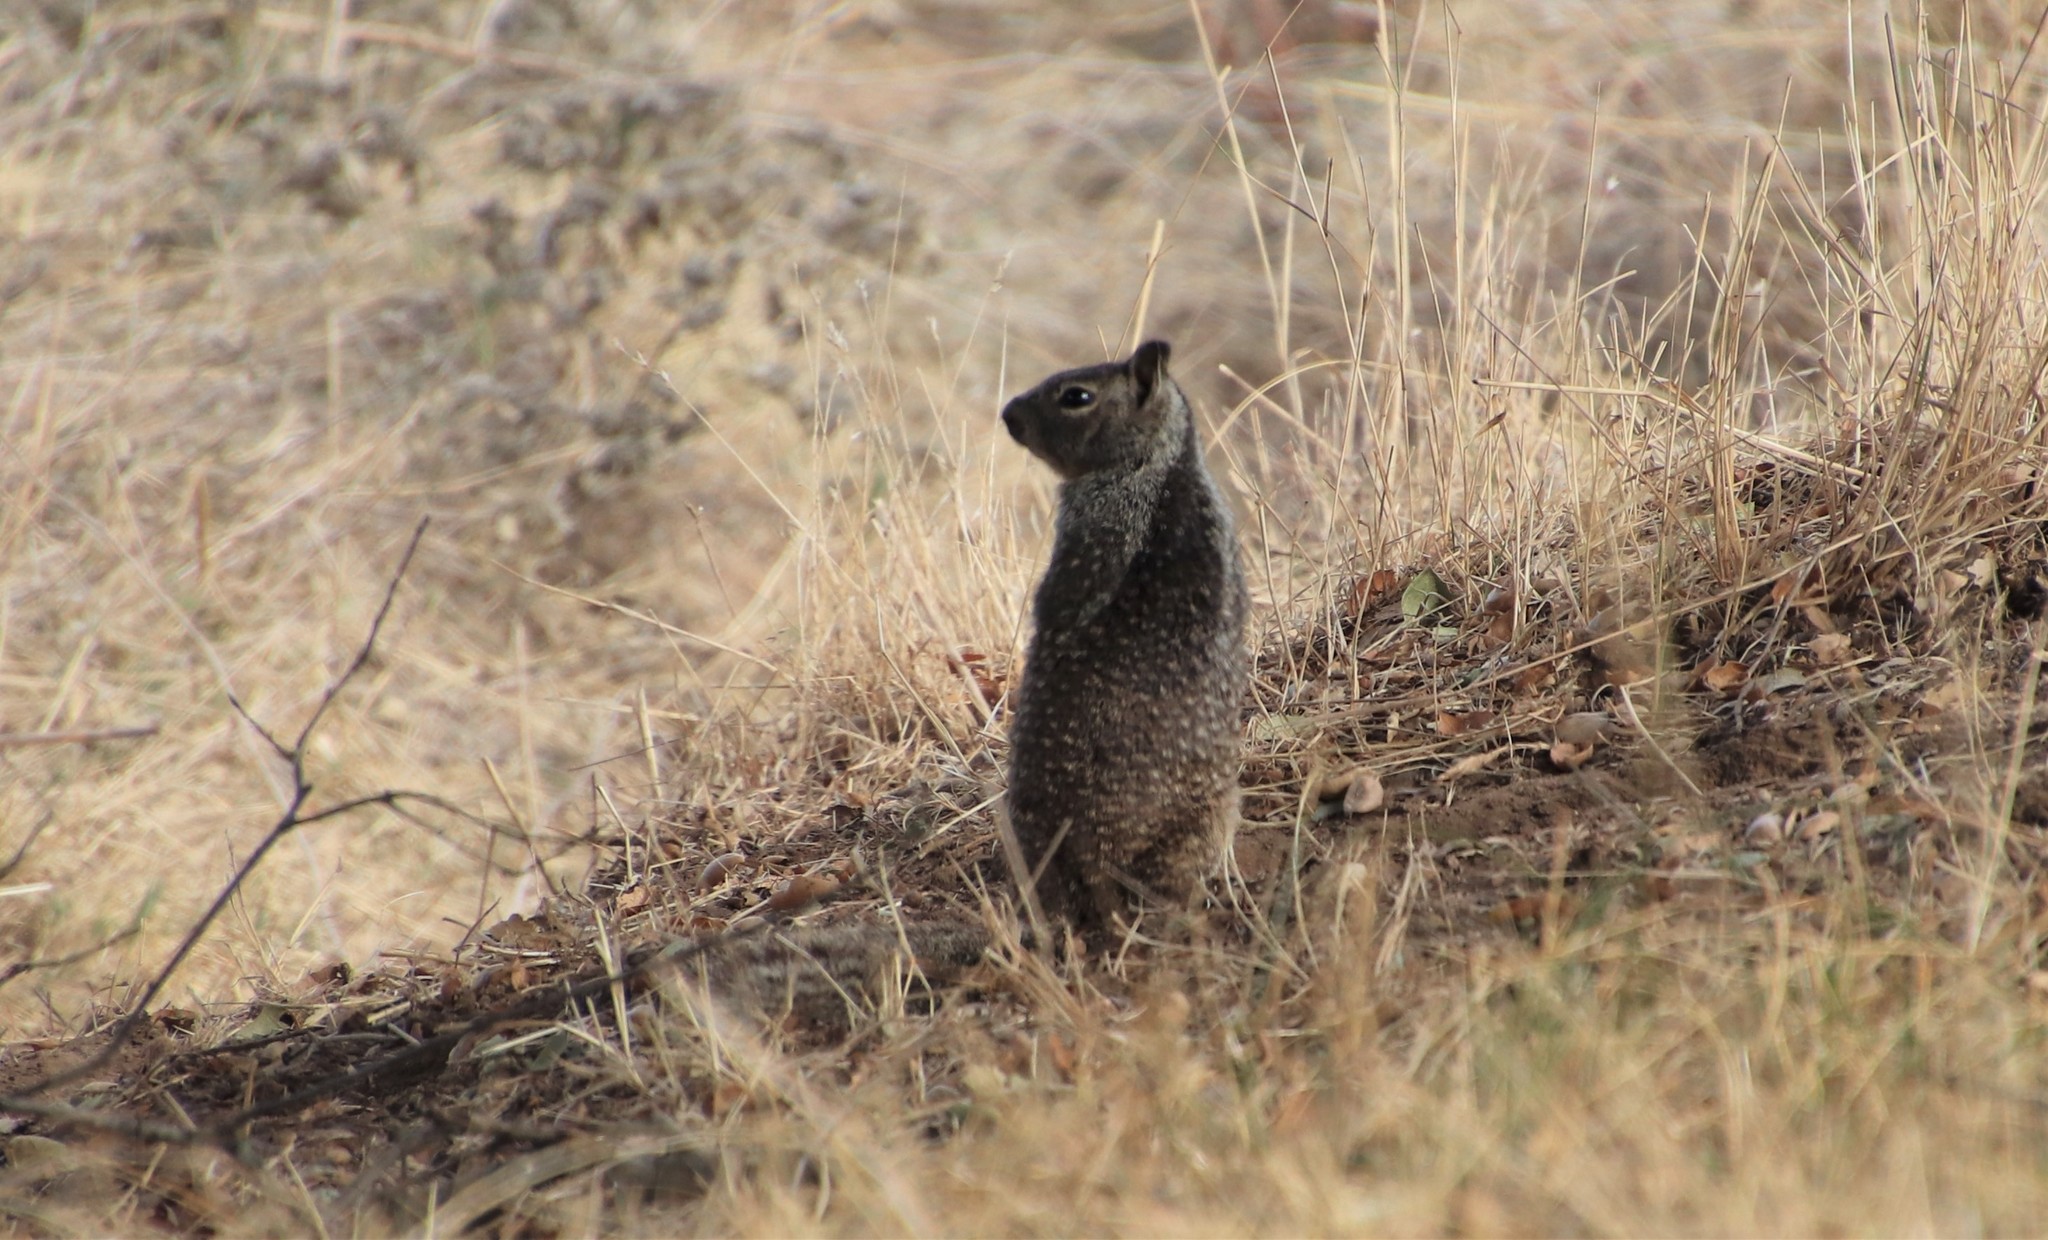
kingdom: Animalia
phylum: Chordata
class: Mammalia
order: Rodentia
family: Sciuridae
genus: Otospermophilus
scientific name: Otospermophilus beecheyi
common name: California ground squirrel
